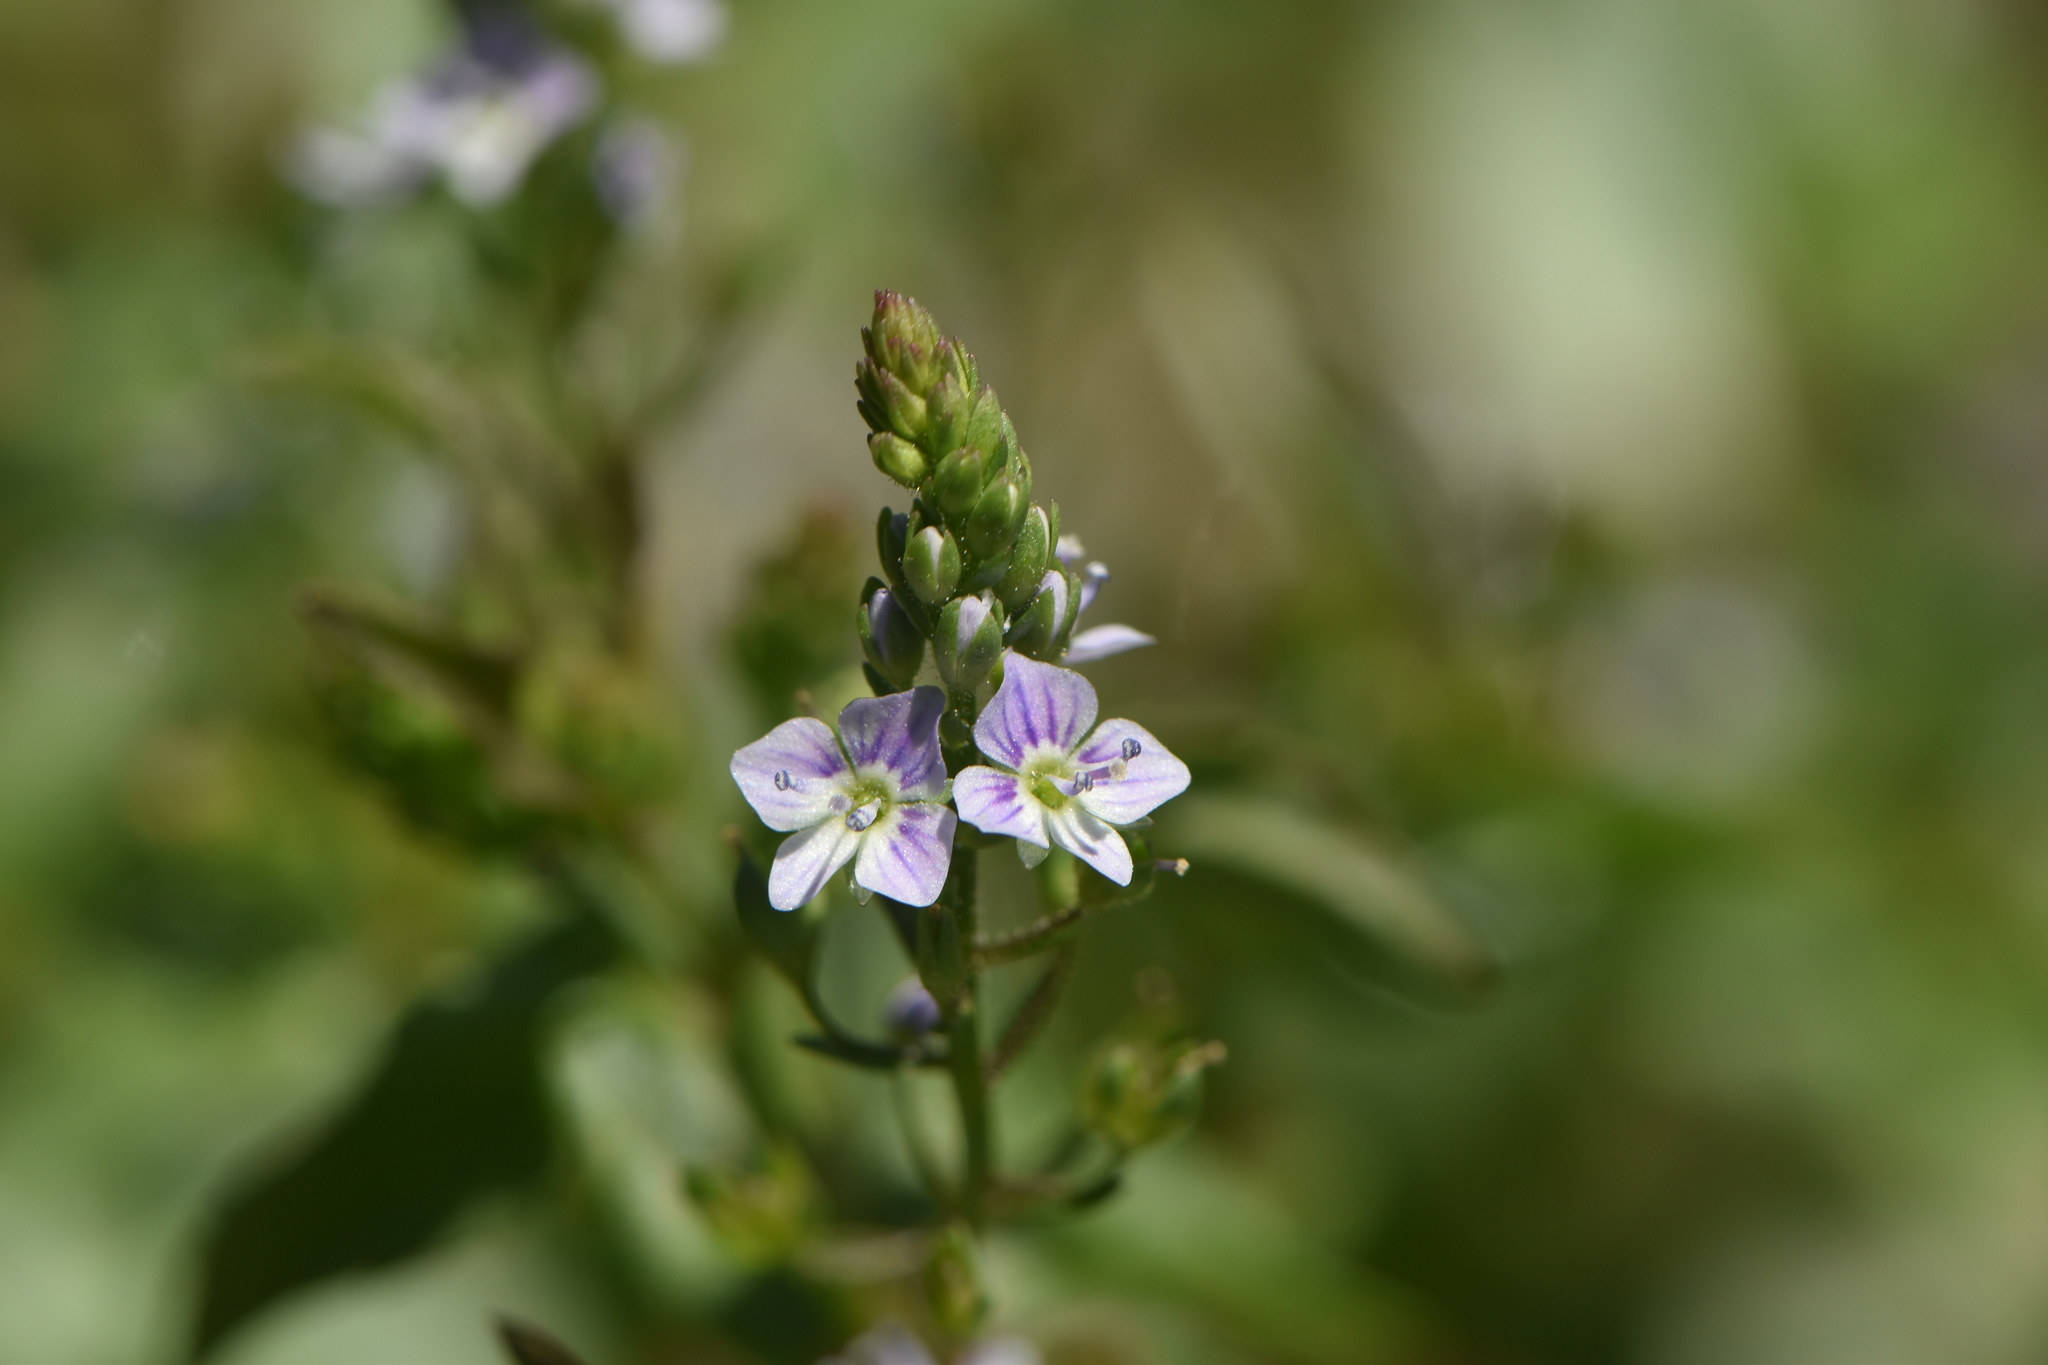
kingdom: Plantae
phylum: Tracheophyta
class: Magnoliopsida
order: Lamiales
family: Plantaginaceae
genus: Veronica
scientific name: Veronica anagallis-aquatica
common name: Water speedwell
